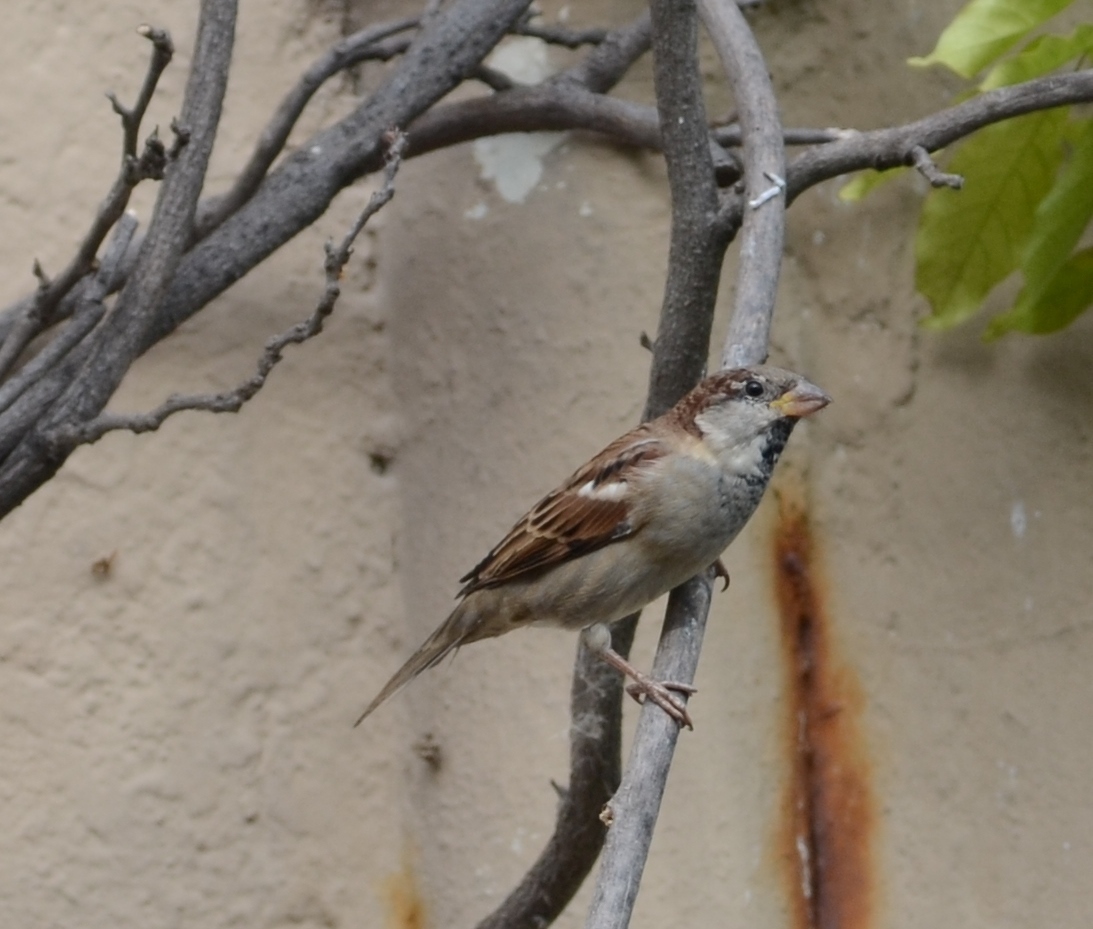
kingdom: Animalia
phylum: Chordata
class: Aves
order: Passeriformes
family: Passeridae
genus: Passer
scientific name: Passer domesticus
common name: House sparrow
